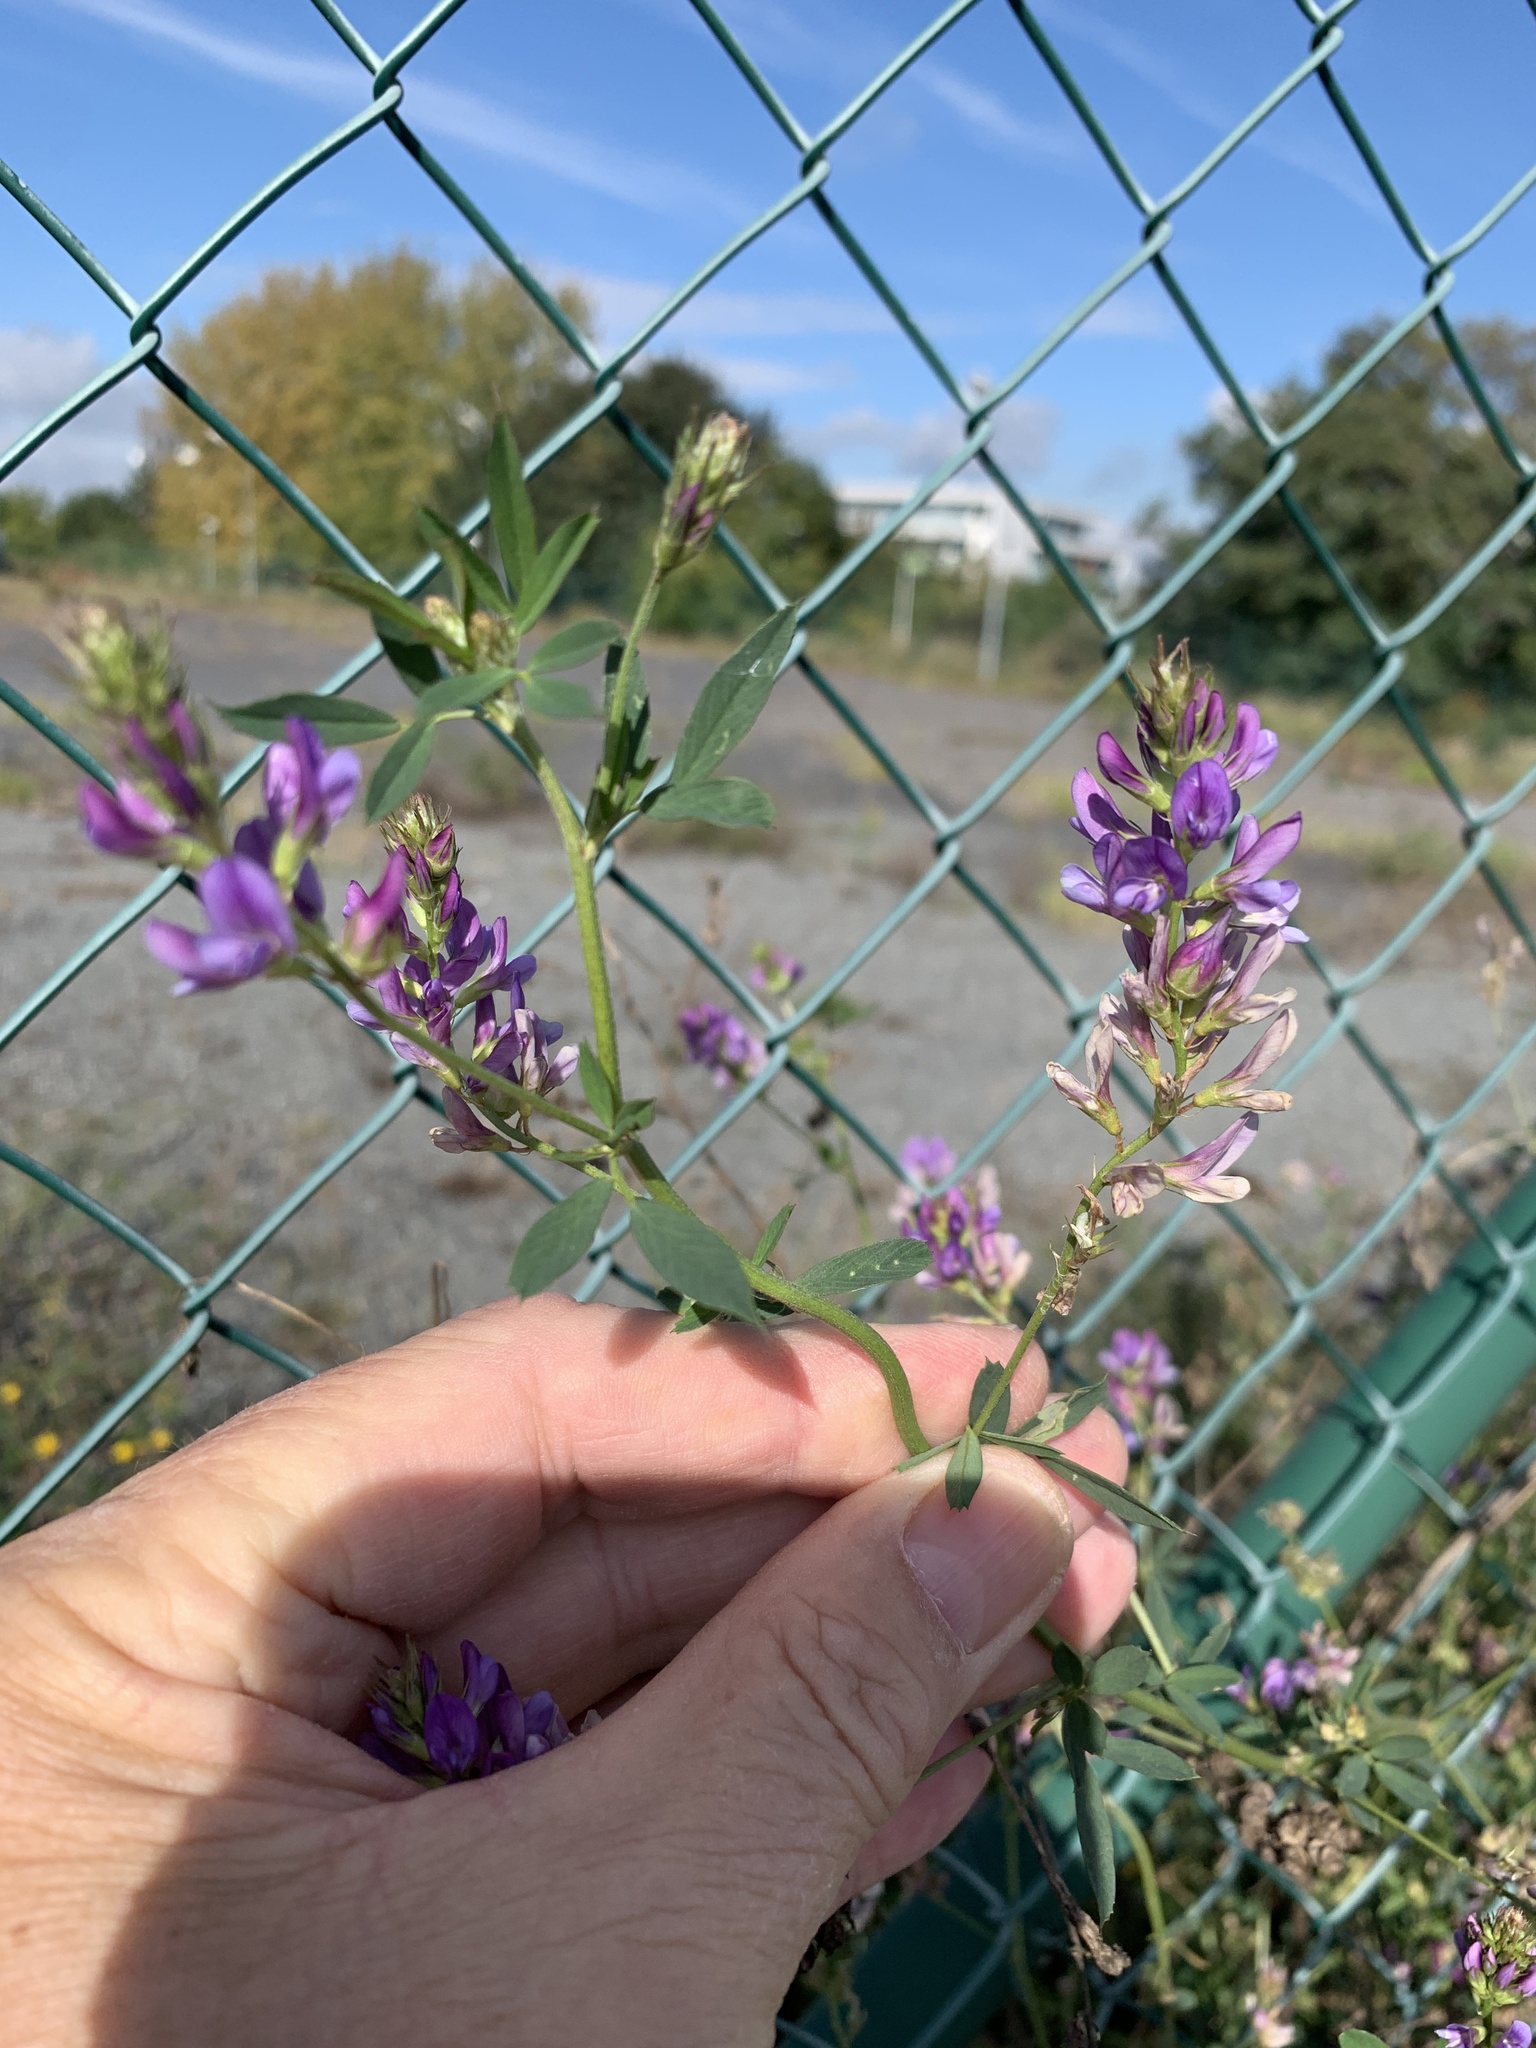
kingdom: Plantae
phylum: Tracheophyta
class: Magnoliopsida
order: Fabales
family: Fabaceae
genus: Medicago
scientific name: Medicago sativa
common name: Alfalfa
